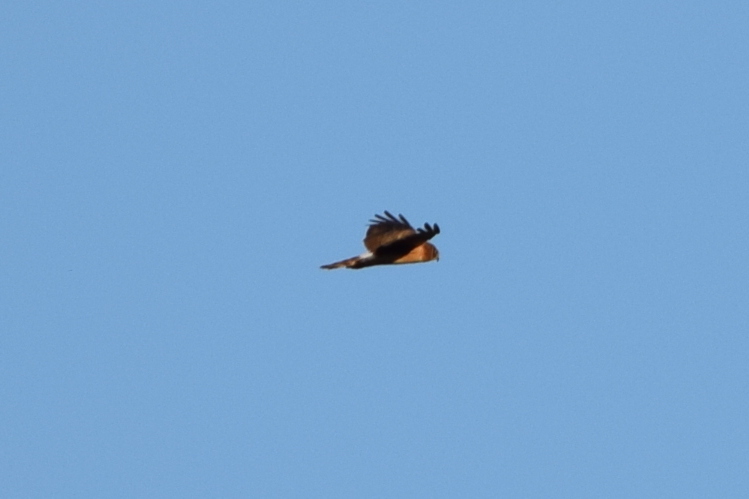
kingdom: Animalia
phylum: Chordata
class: Aves
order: Accipitriformes
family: Accipitridae
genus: Circus
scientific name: Circus cyaneus
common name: Hen harrier
